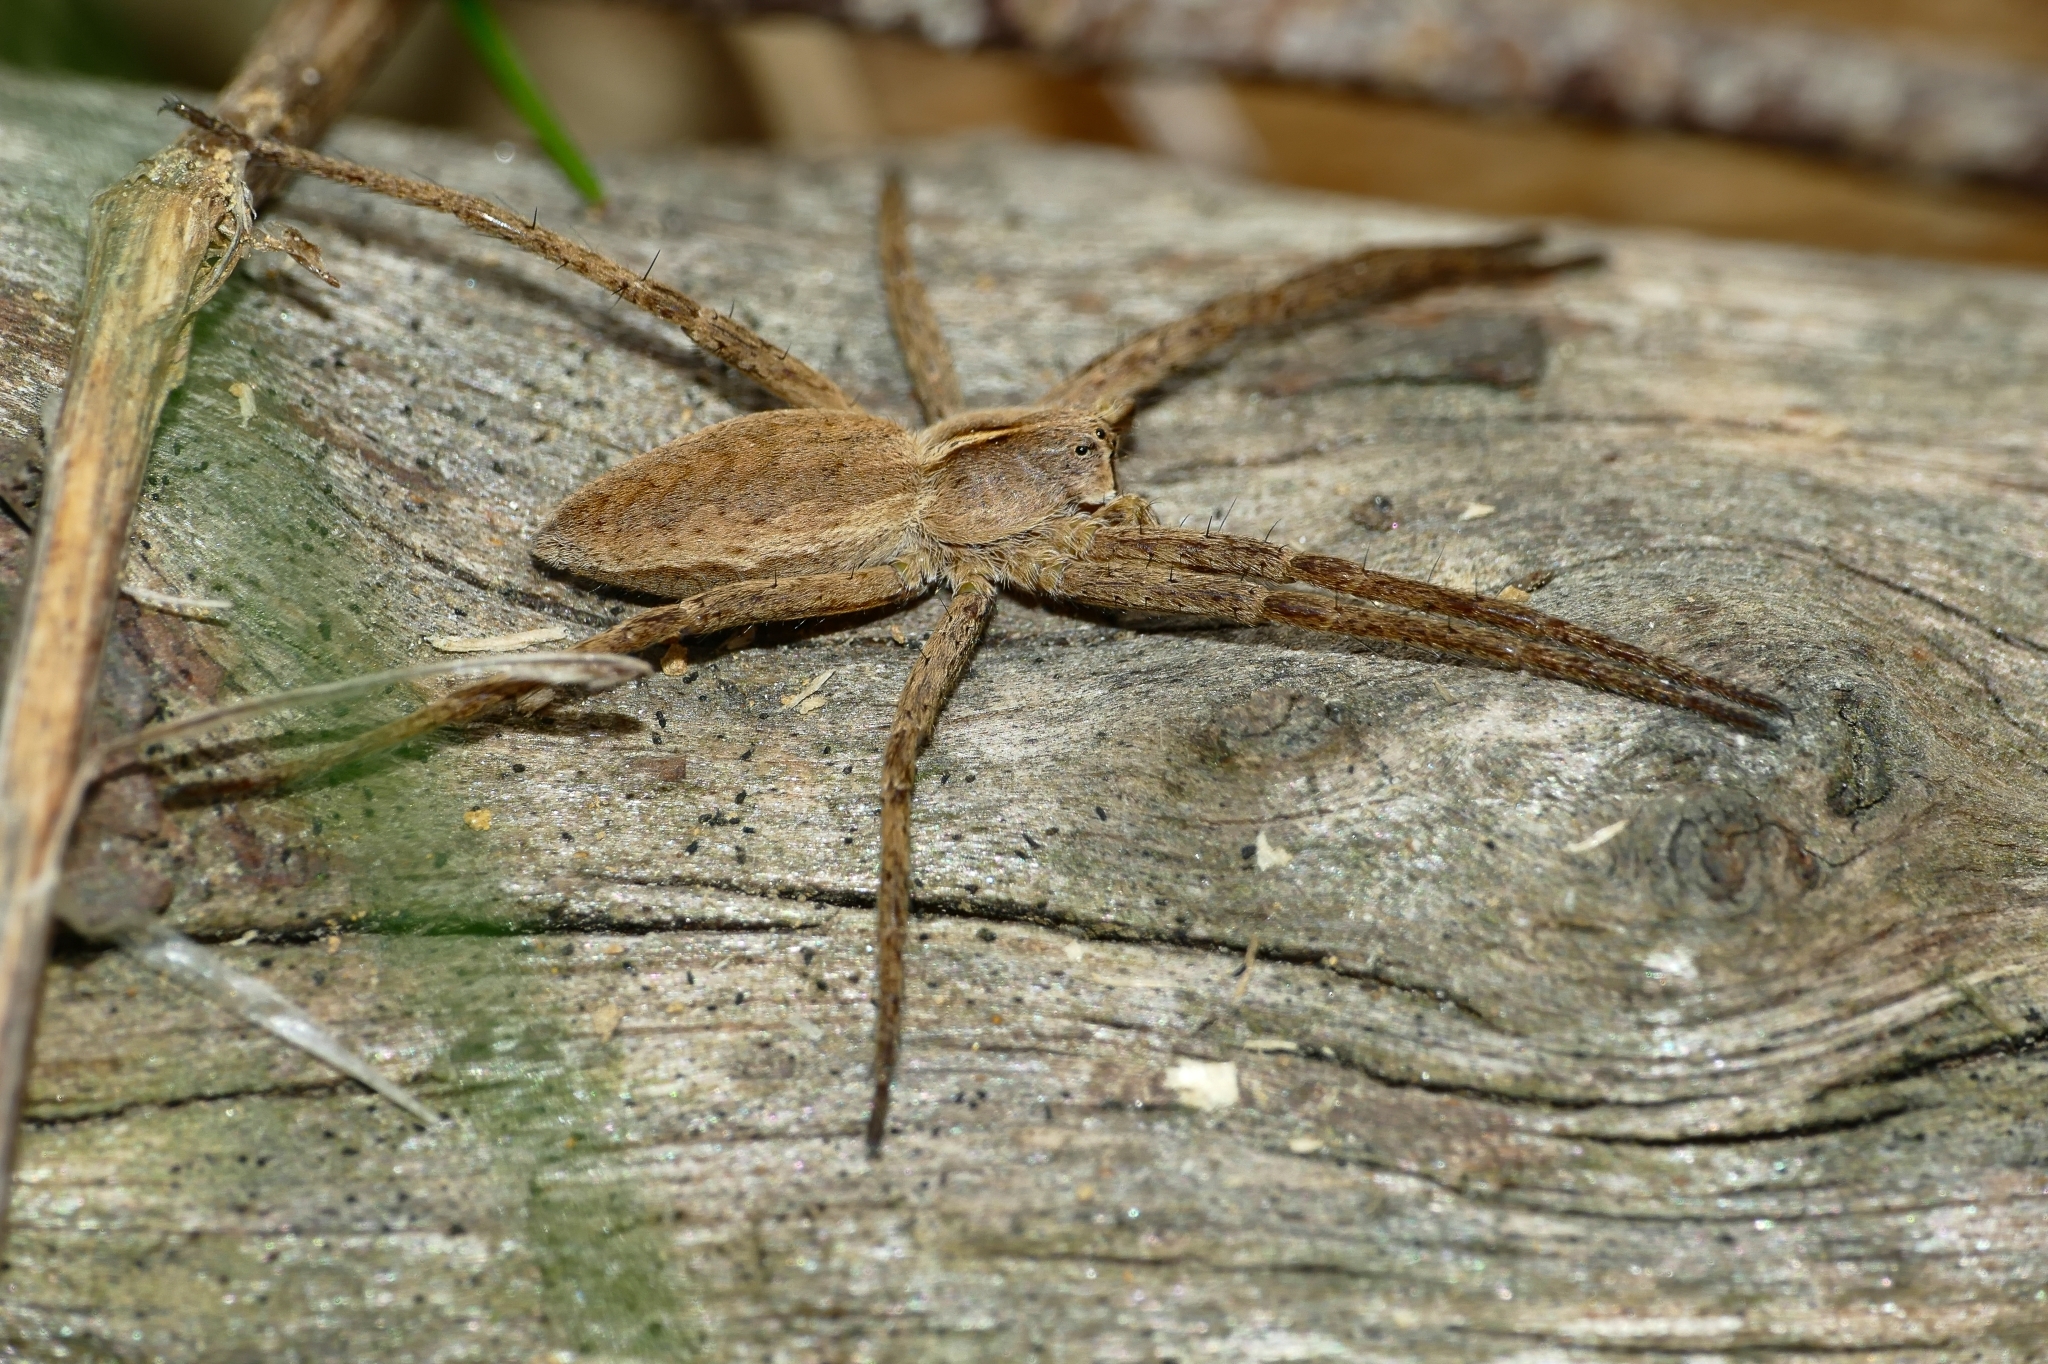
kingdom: Animalia
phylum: Arthropoda
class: Arachnida
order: Araneae
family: Pisauridae
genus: Pisaura
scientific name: Pisaura mirabilis
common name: Tent spider
